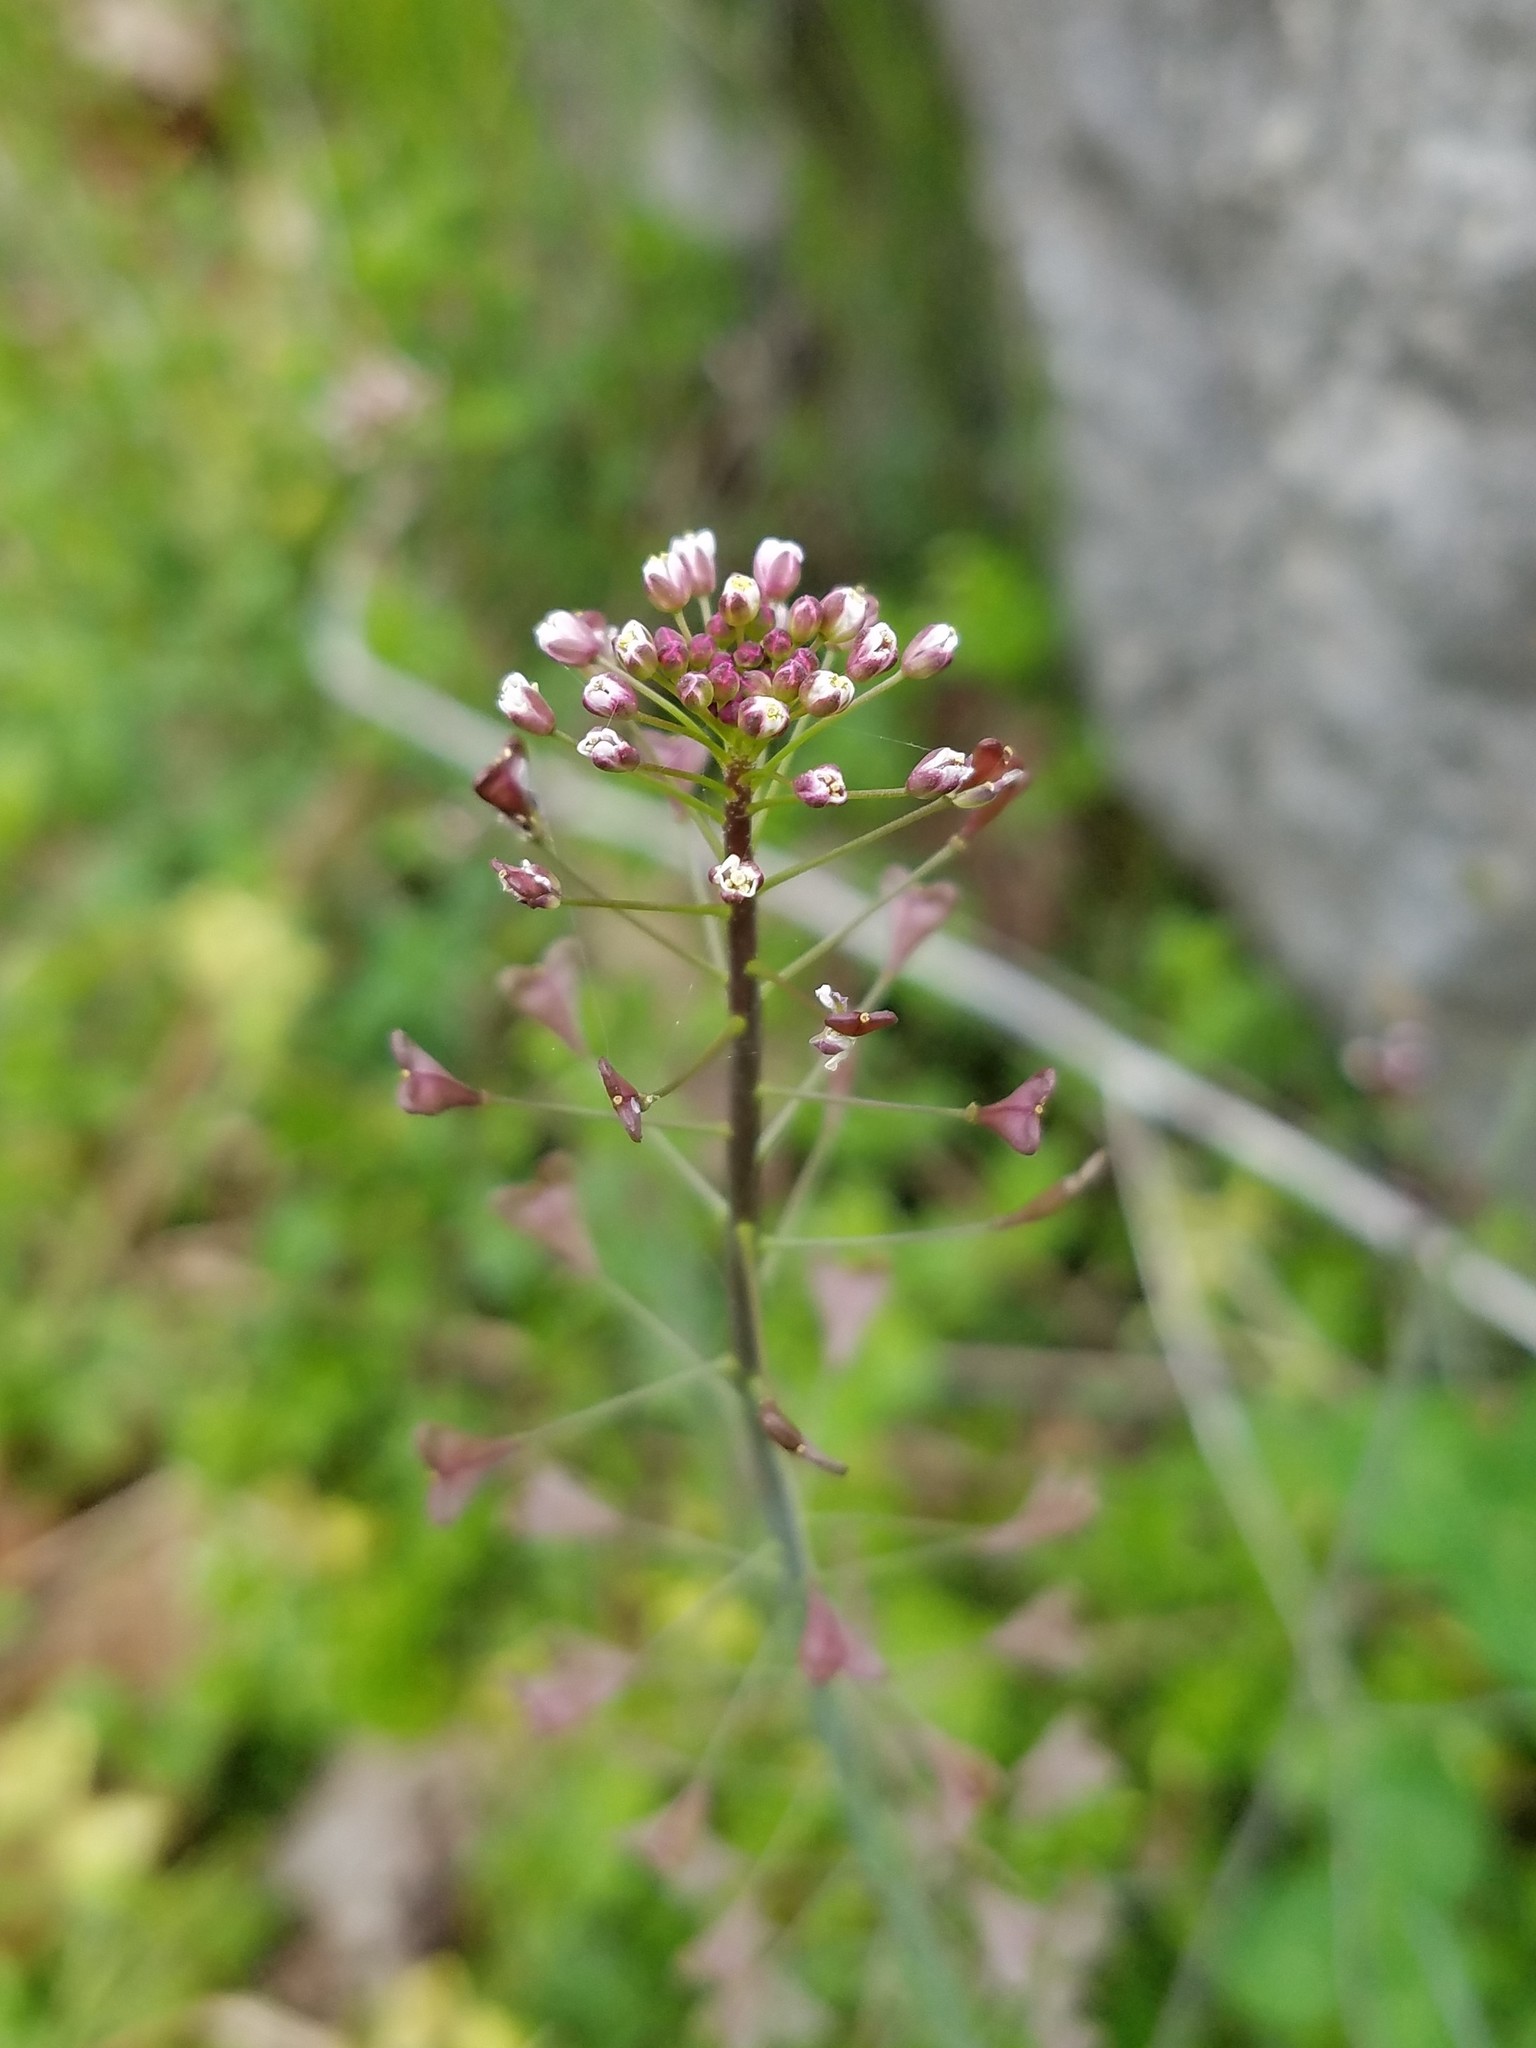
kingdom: Plantae
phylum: Tracheophyta
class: Magnoliopsida
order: Brassicales
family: Brassicaceae
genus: Capsella
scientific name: Capsella bursa-pastoris
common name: Shepherd's purse
